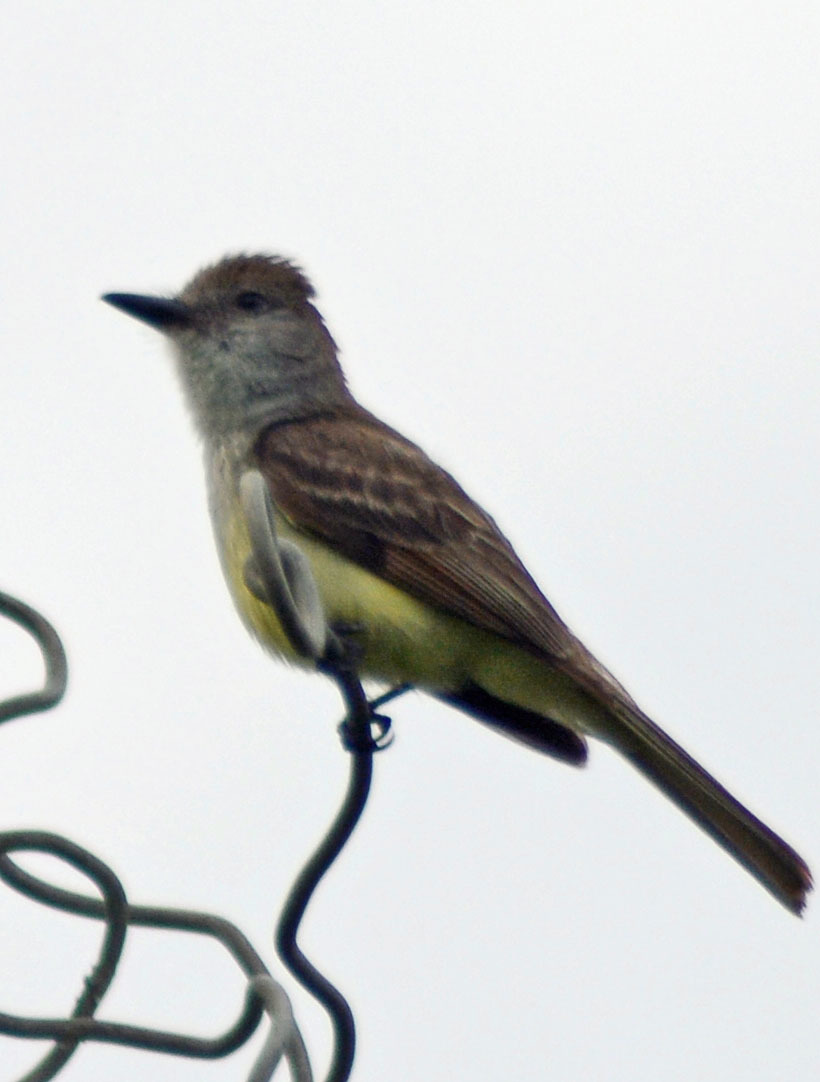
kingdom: Animalia
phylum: Chordata
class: Aves
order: Passeriformes
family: Tyrannidae
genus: Myiarchus
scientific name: Myiarchus tyrannulus
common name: Brown-crested flycatcher
